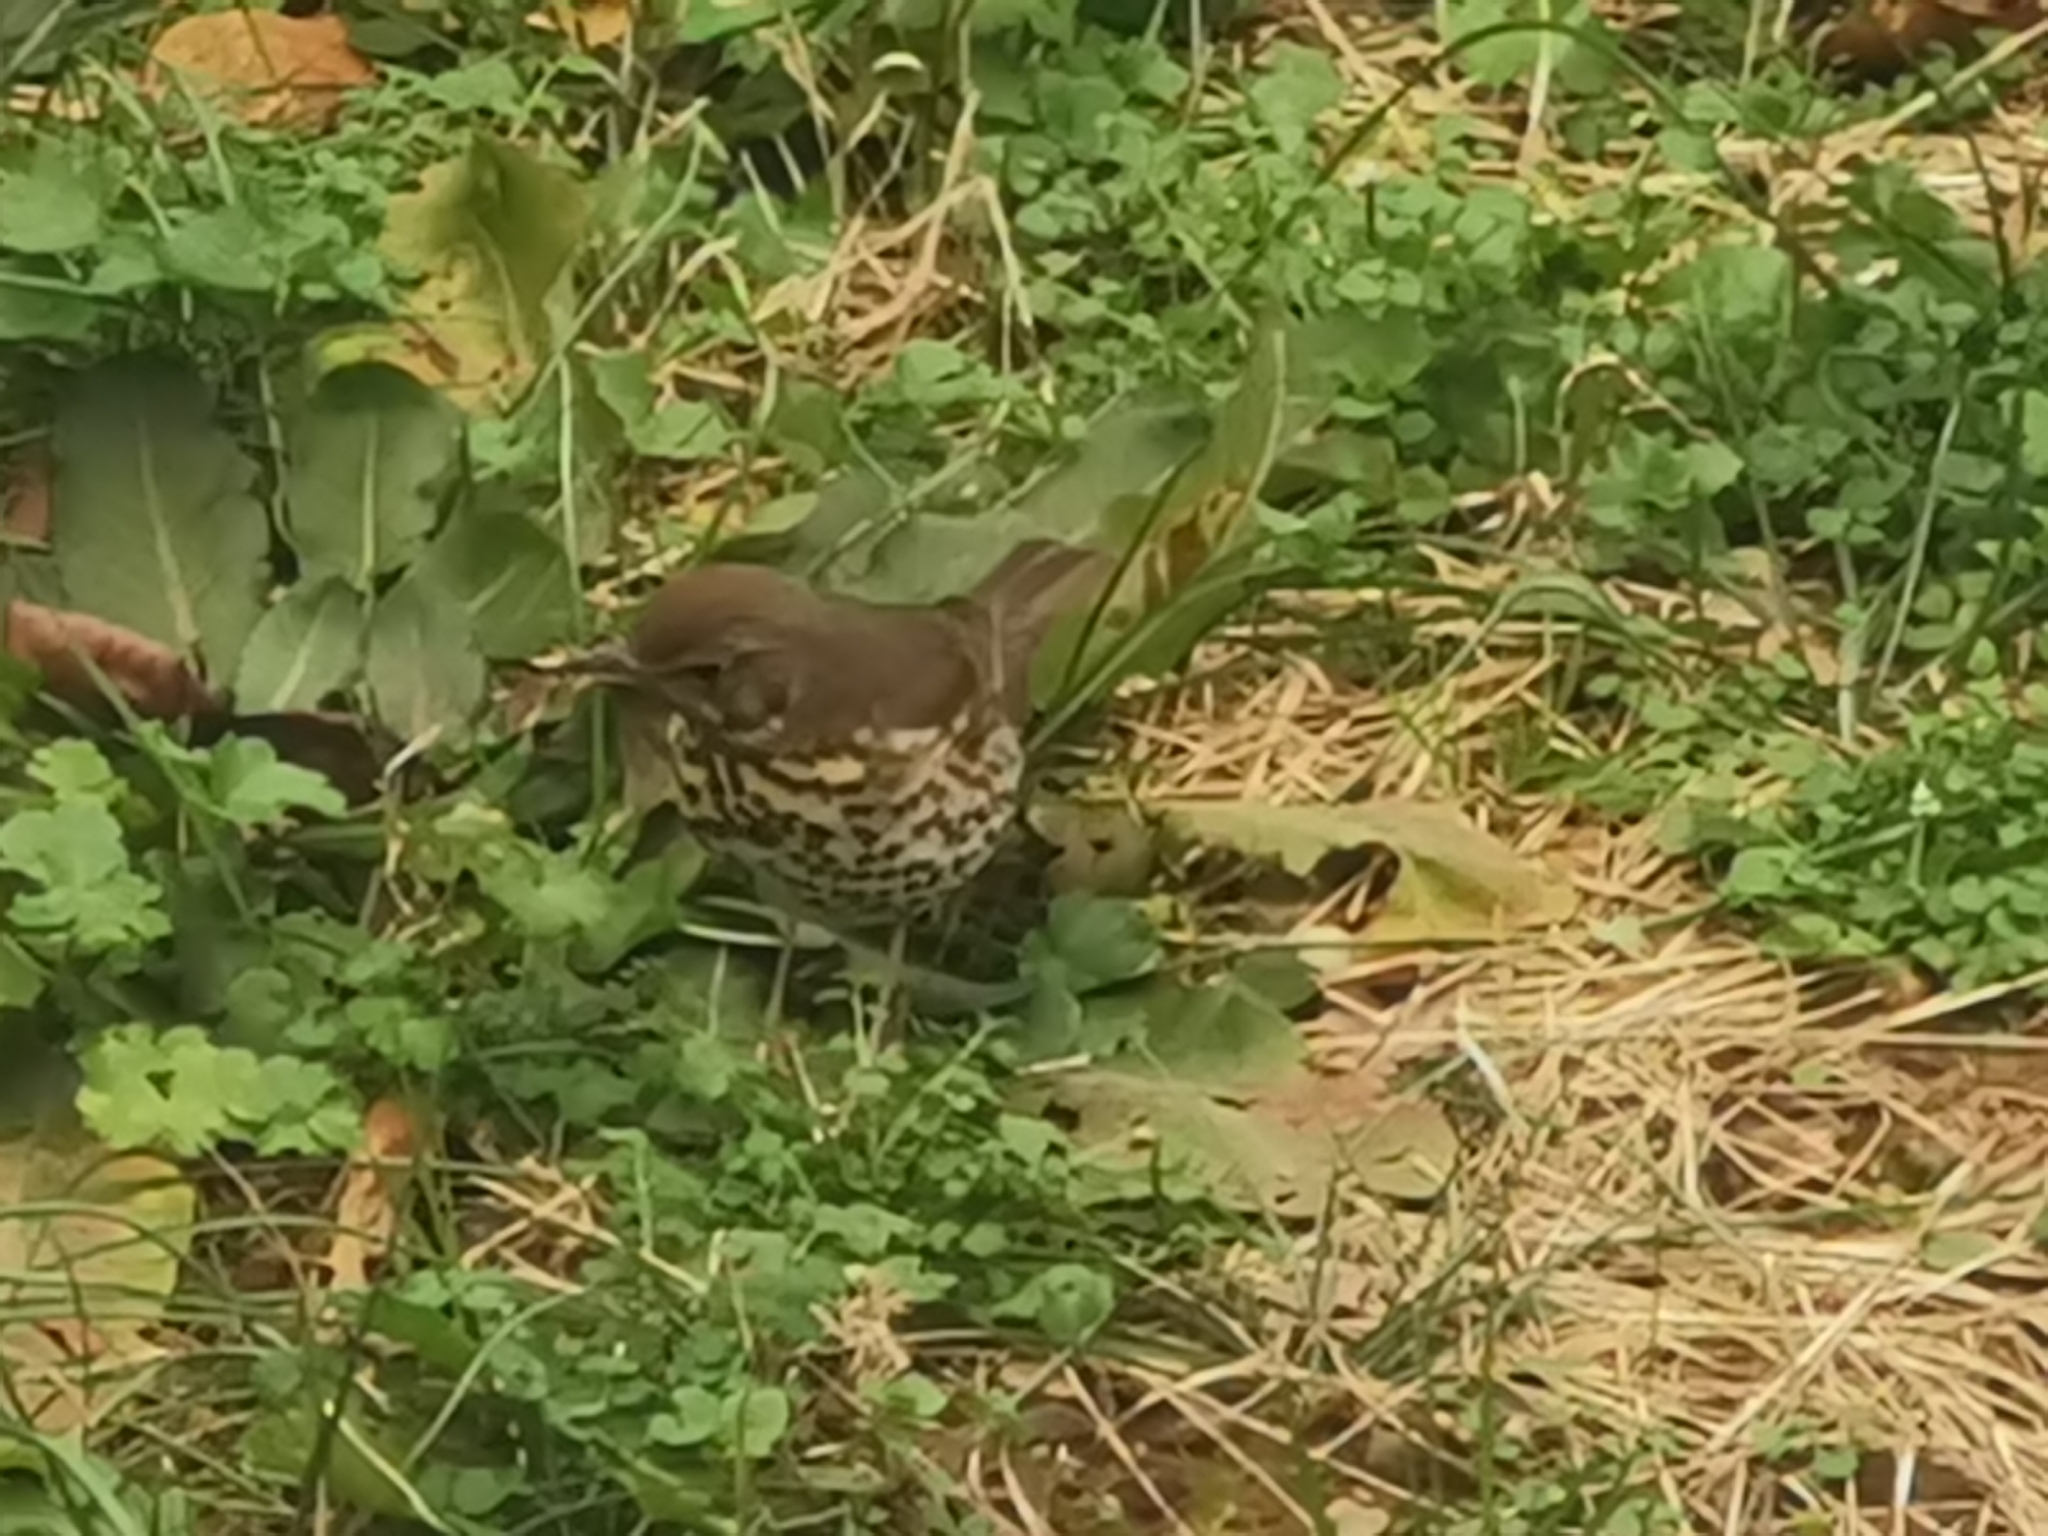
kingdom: Animalia
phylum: Chordata
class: Aves
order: Passeriformes
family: Turdidae
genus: Turdus
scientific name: Turdus philomelos
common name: Song thrush
